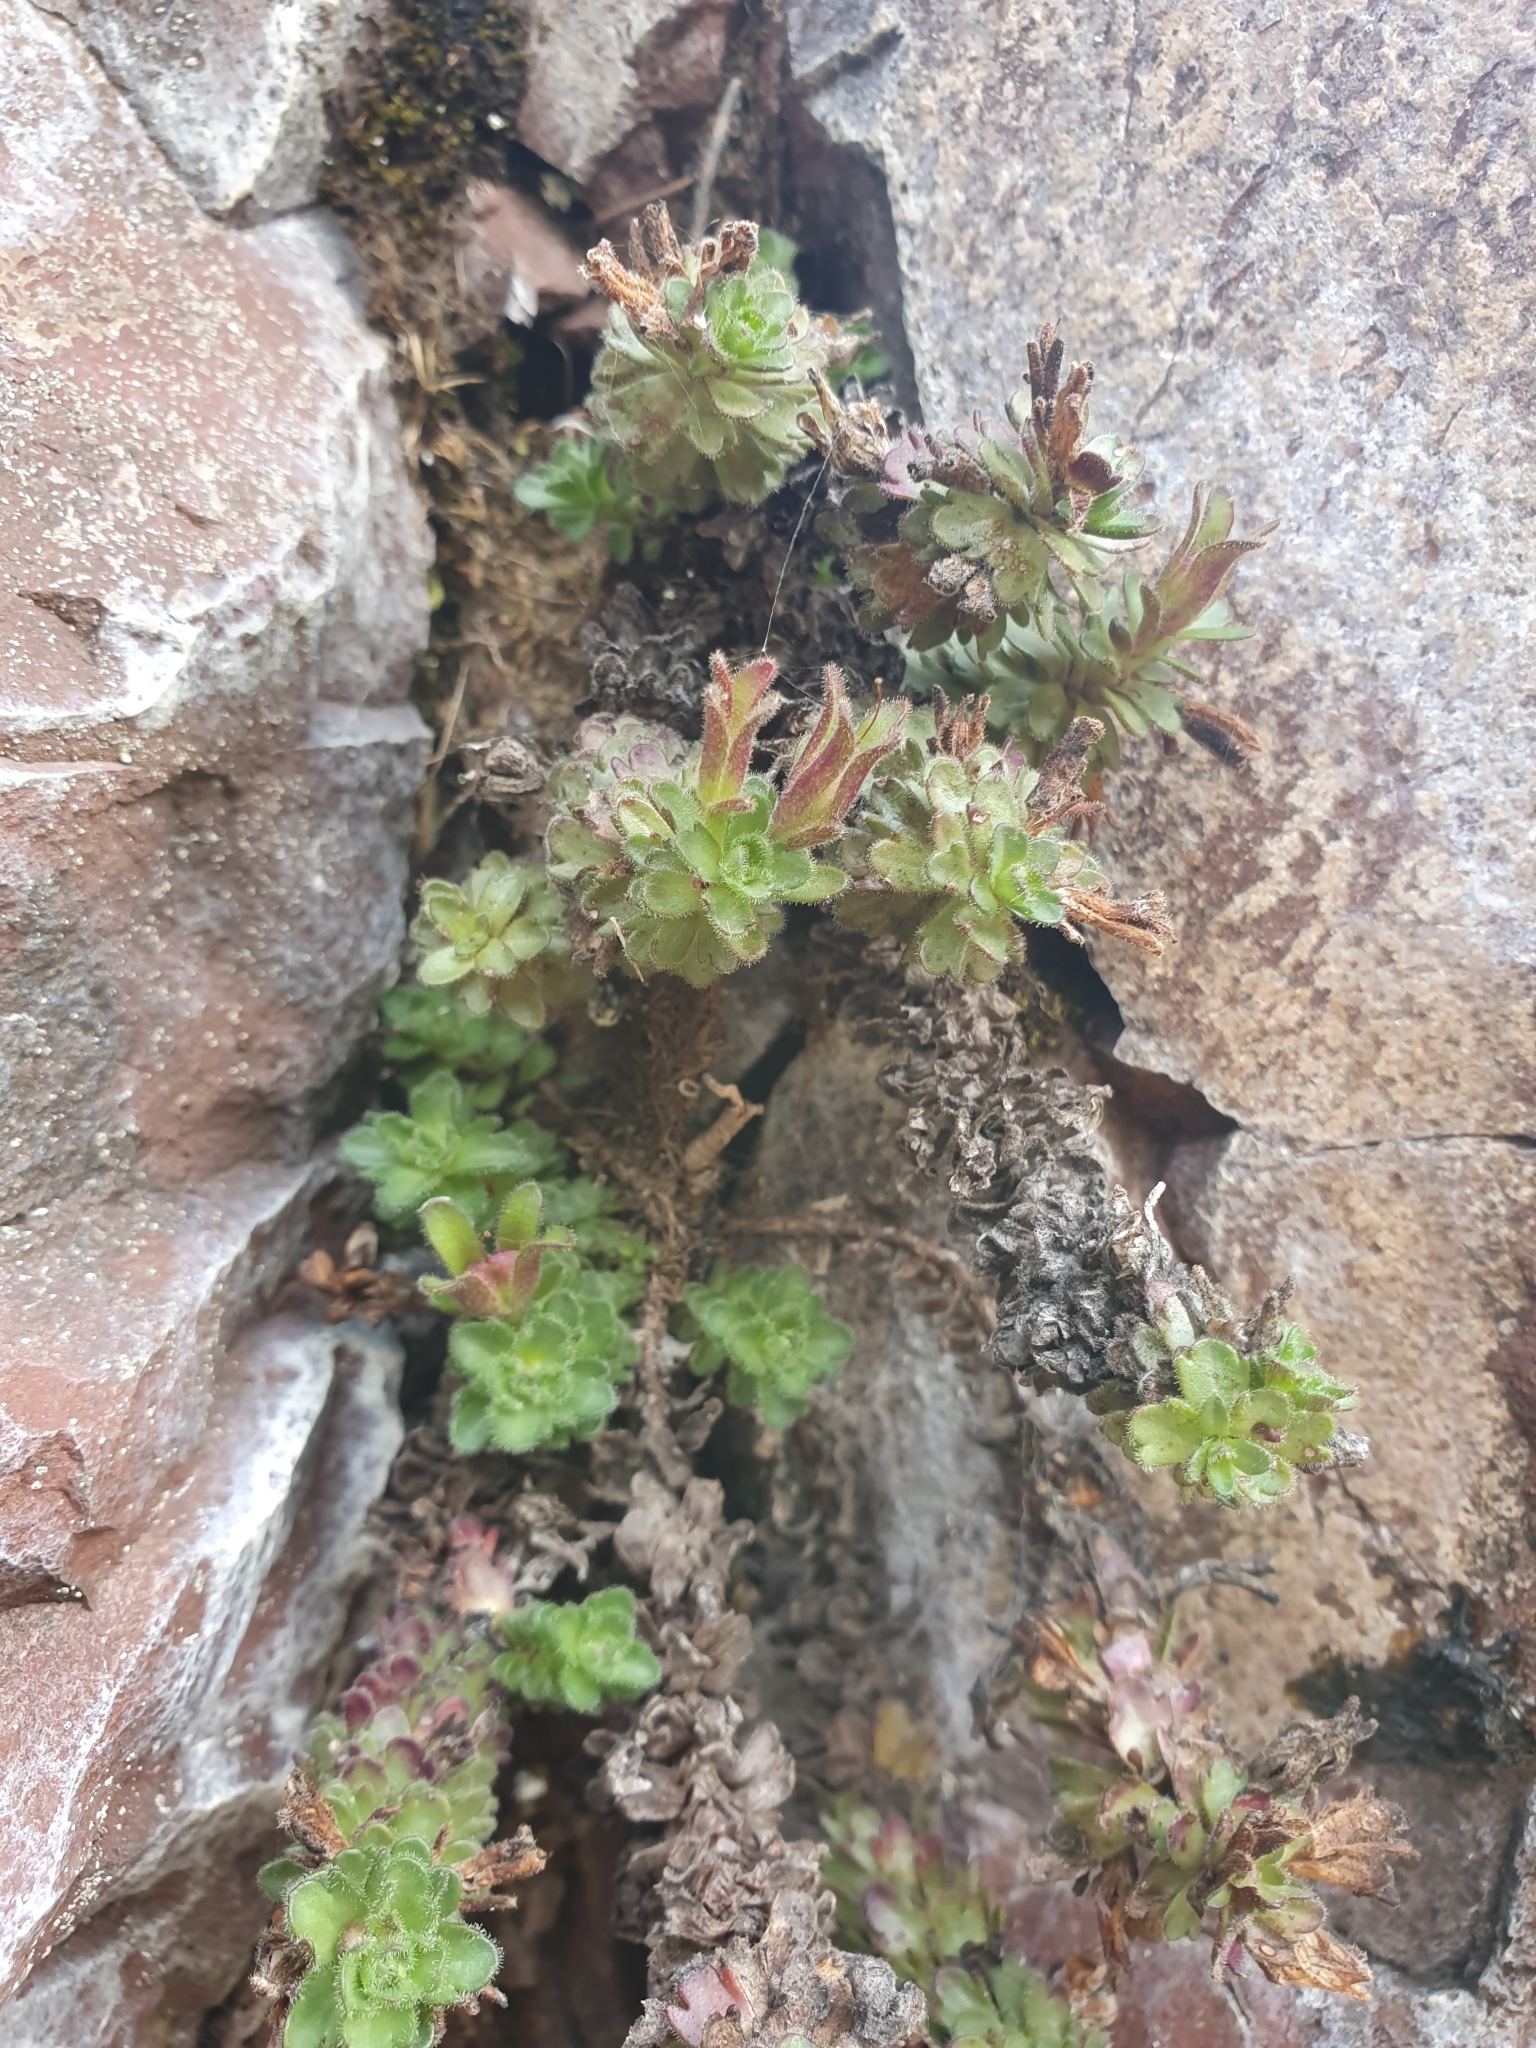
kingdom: Plantae
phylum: Tracheophyta
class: Magnoliopsida
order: Lamiales
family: Plantaginaceae
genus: Veronica
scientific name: Veronica spectabilis
